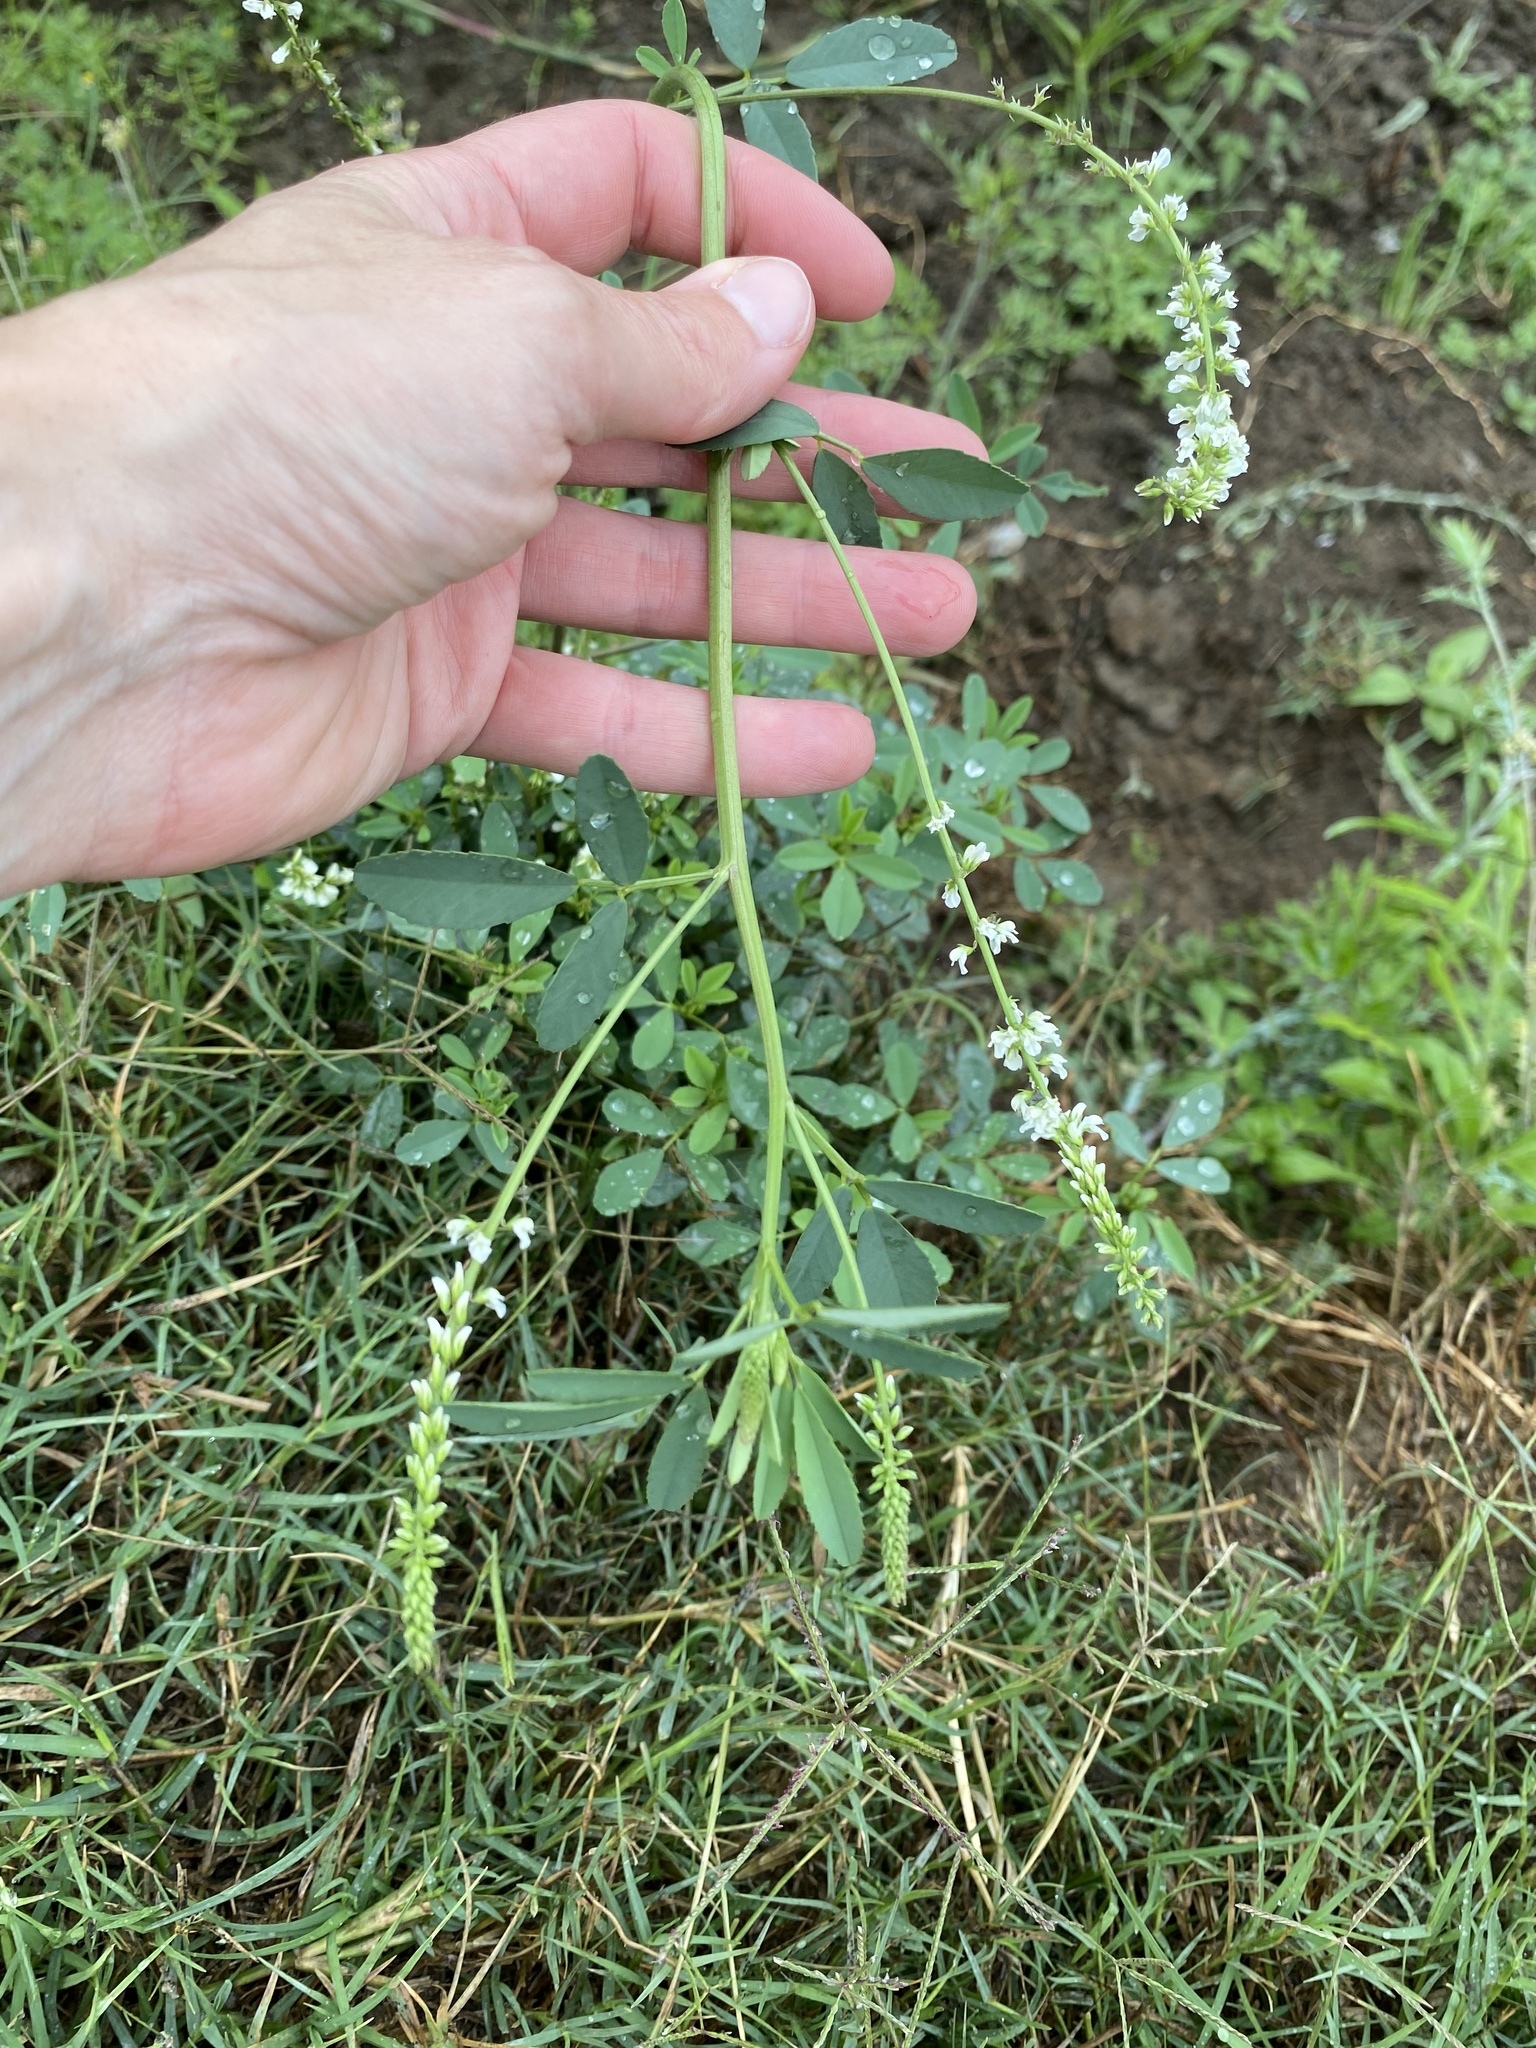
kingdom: Plantae
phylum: Tracheophyta
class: Magnoliopsida
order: Fabales
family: Fabaceae
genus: Melilotus
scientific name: Melilotus albus
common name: White melilot
